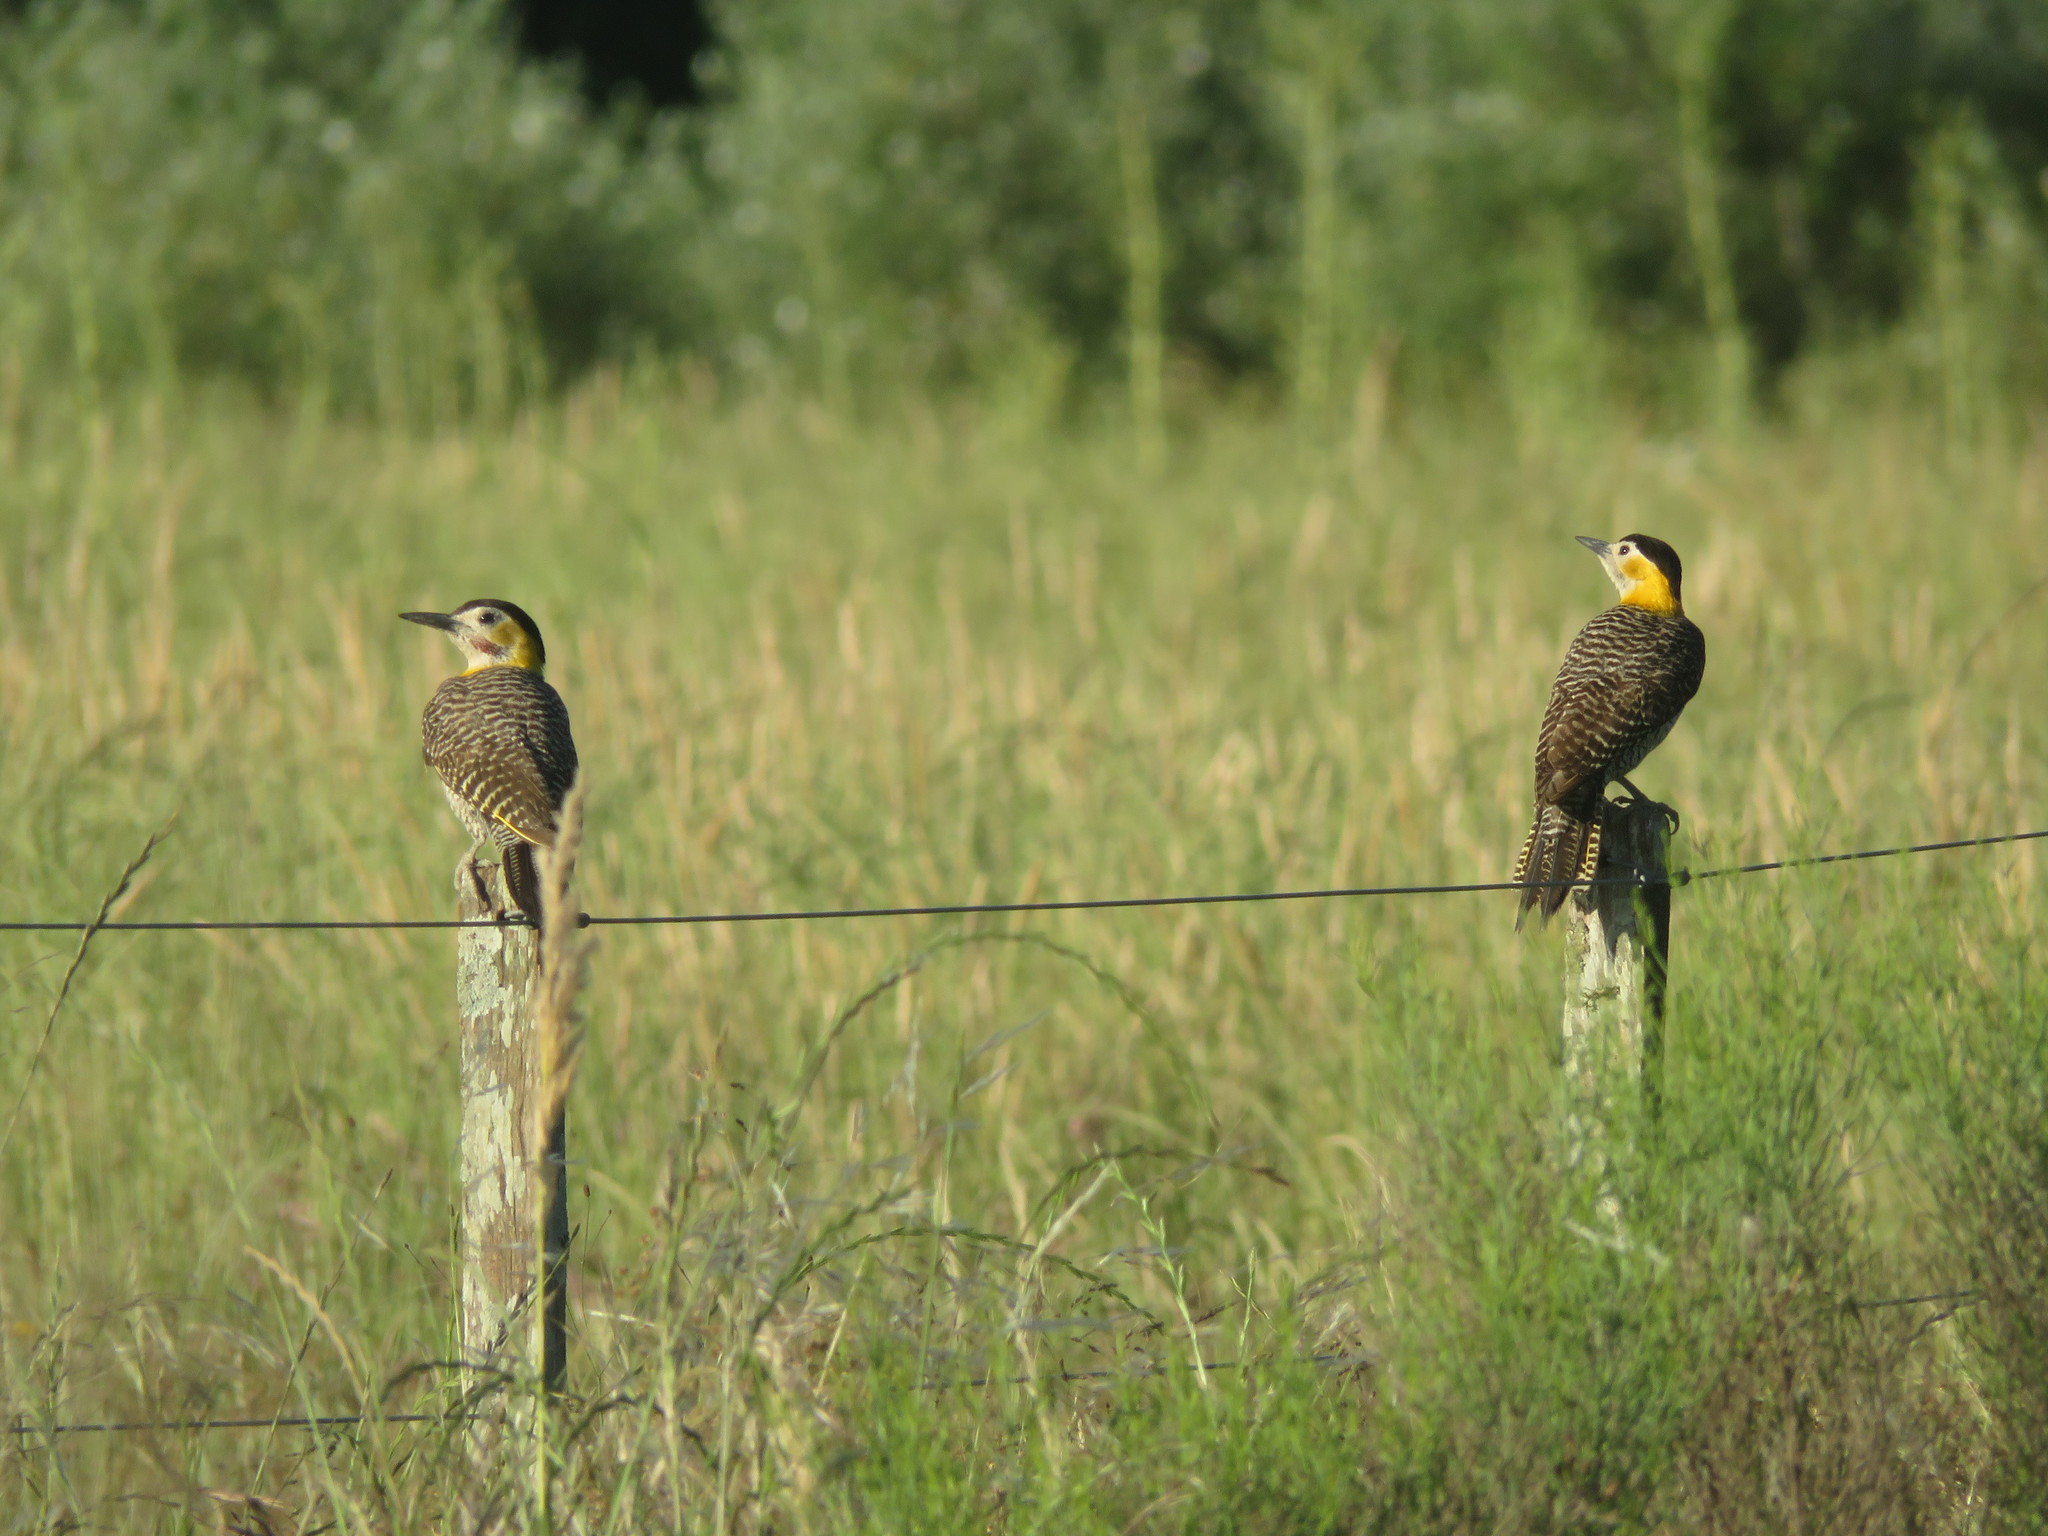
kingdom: Animalia
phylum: Chordata
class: Aves
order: Piciformes
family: Picidae
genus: Colaptes
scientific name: Colaptes campestris
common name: Campo flicker
